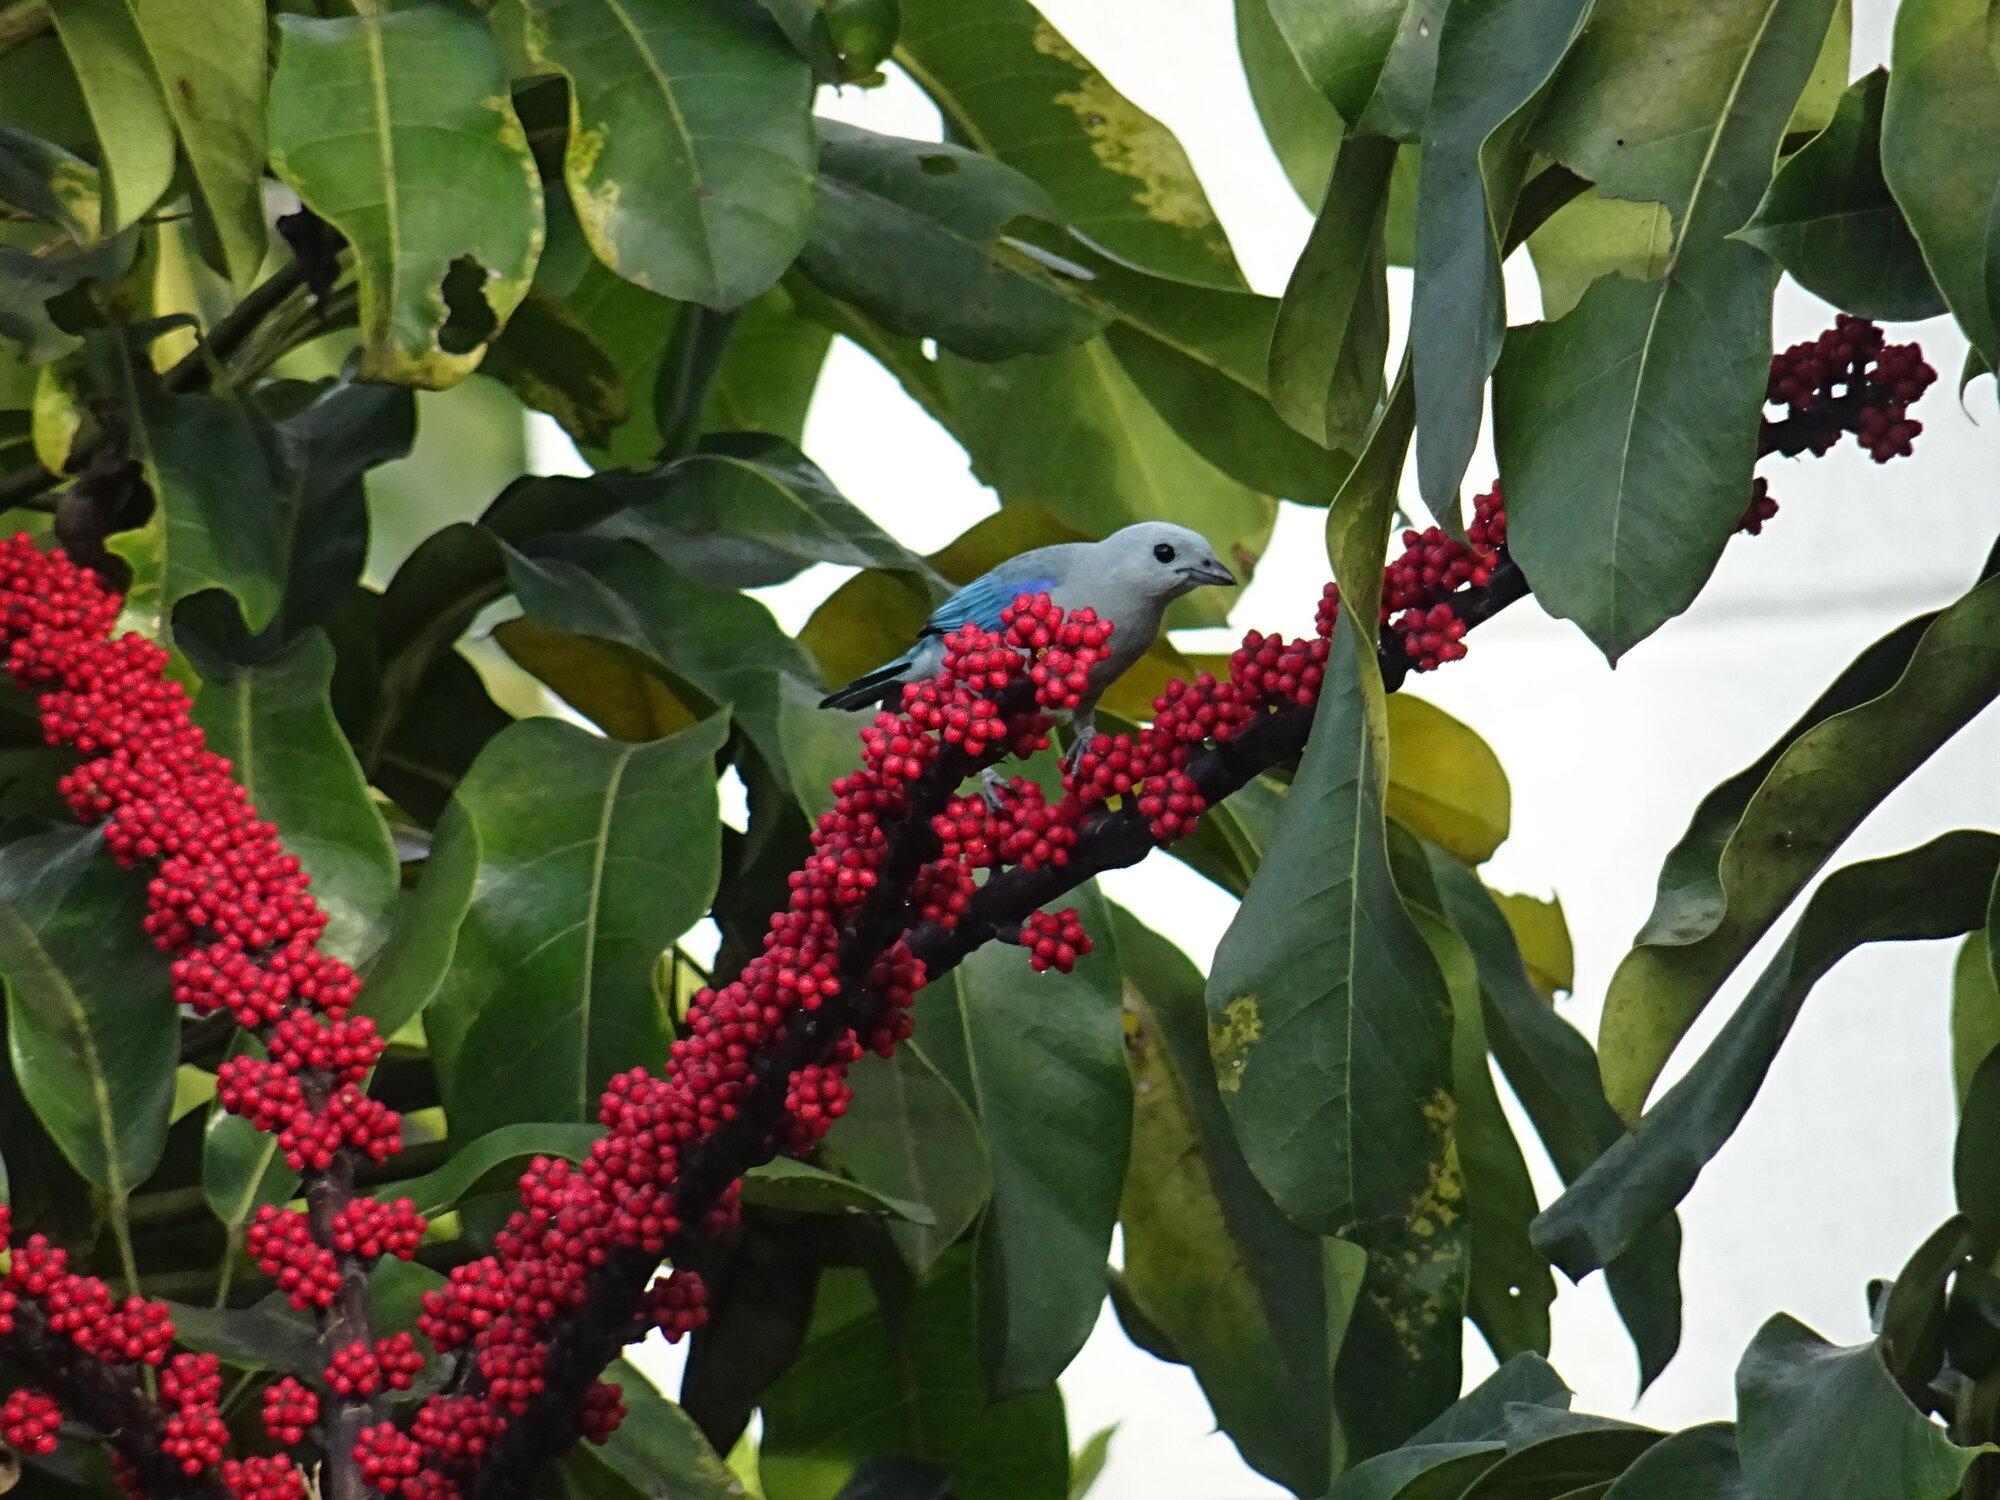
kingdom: Animalia
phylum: Chordata
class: Aves
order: Passeriformes
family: Thraupidae
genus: Thraupis
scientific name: Thraupis episcopus
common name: Blue-grey tanager
